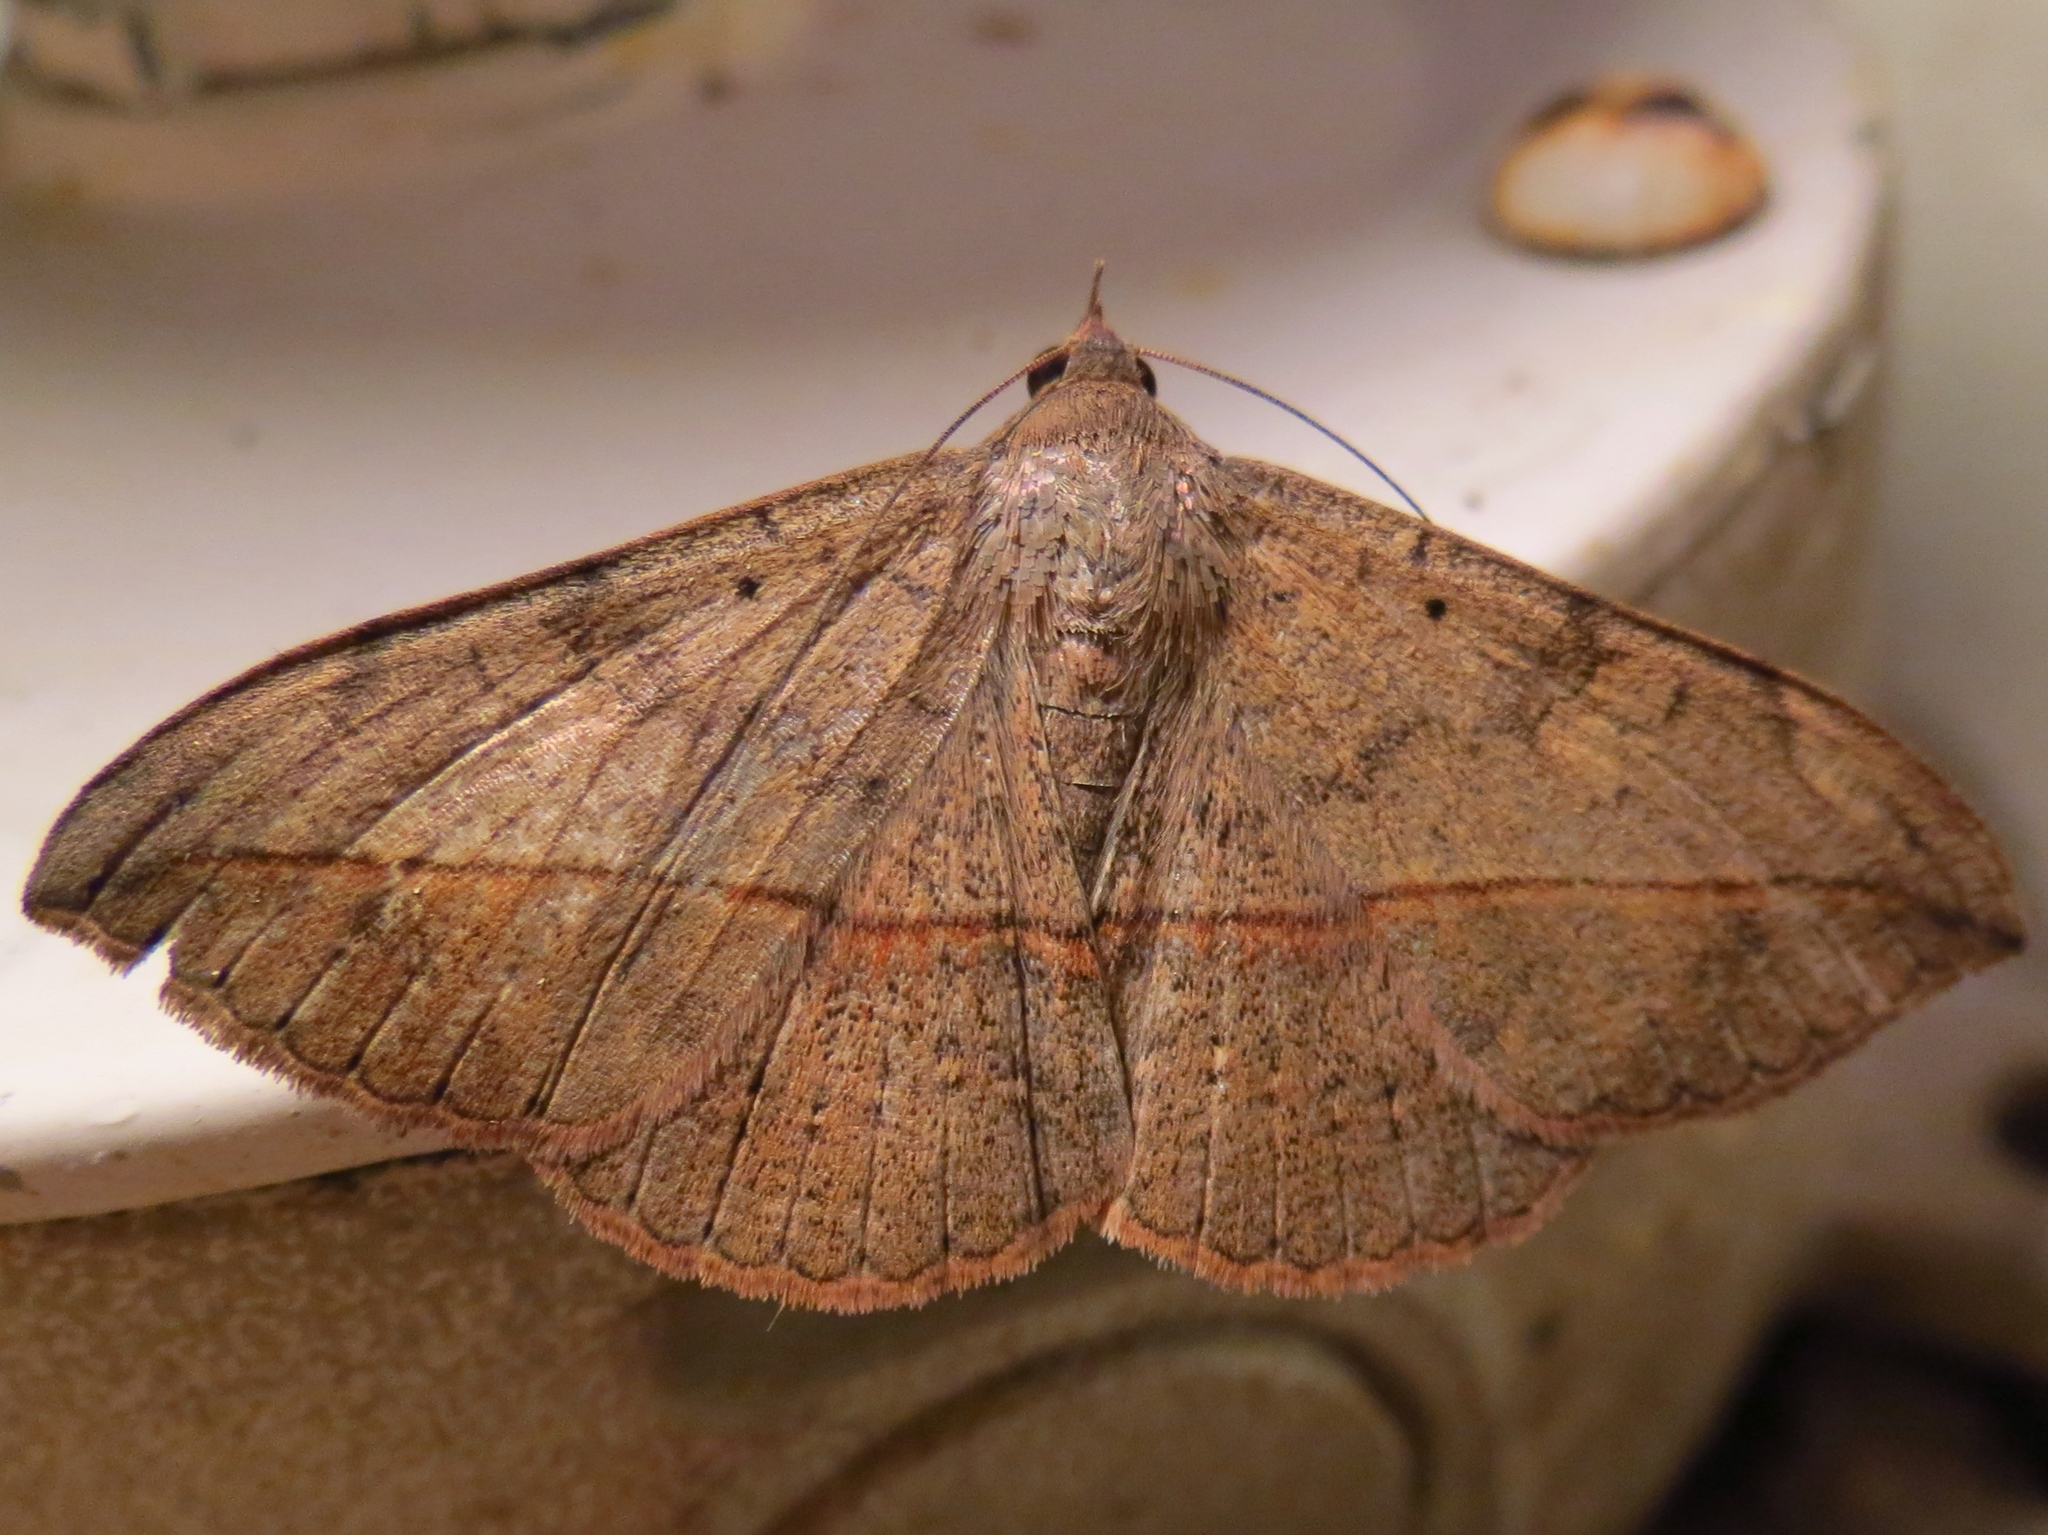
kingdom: Animalia
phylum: Arthropoda
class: Insecta
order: Lepidoptera
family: Erebidae
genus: Anticarsia
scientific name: Anticarsia gemmatalis
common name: Cutworm moth
